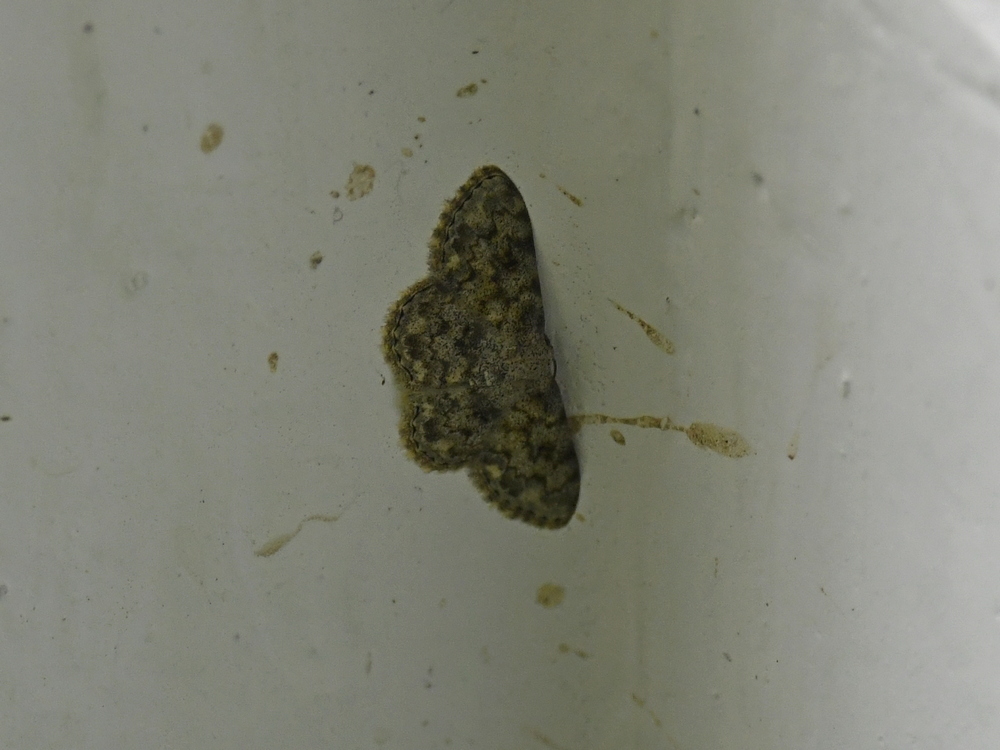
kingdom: Animalia
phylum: Arthropoda
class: Insecta
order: Lepidoptera
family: Geometridae
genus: Scopula
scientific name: Scopula fibulata
